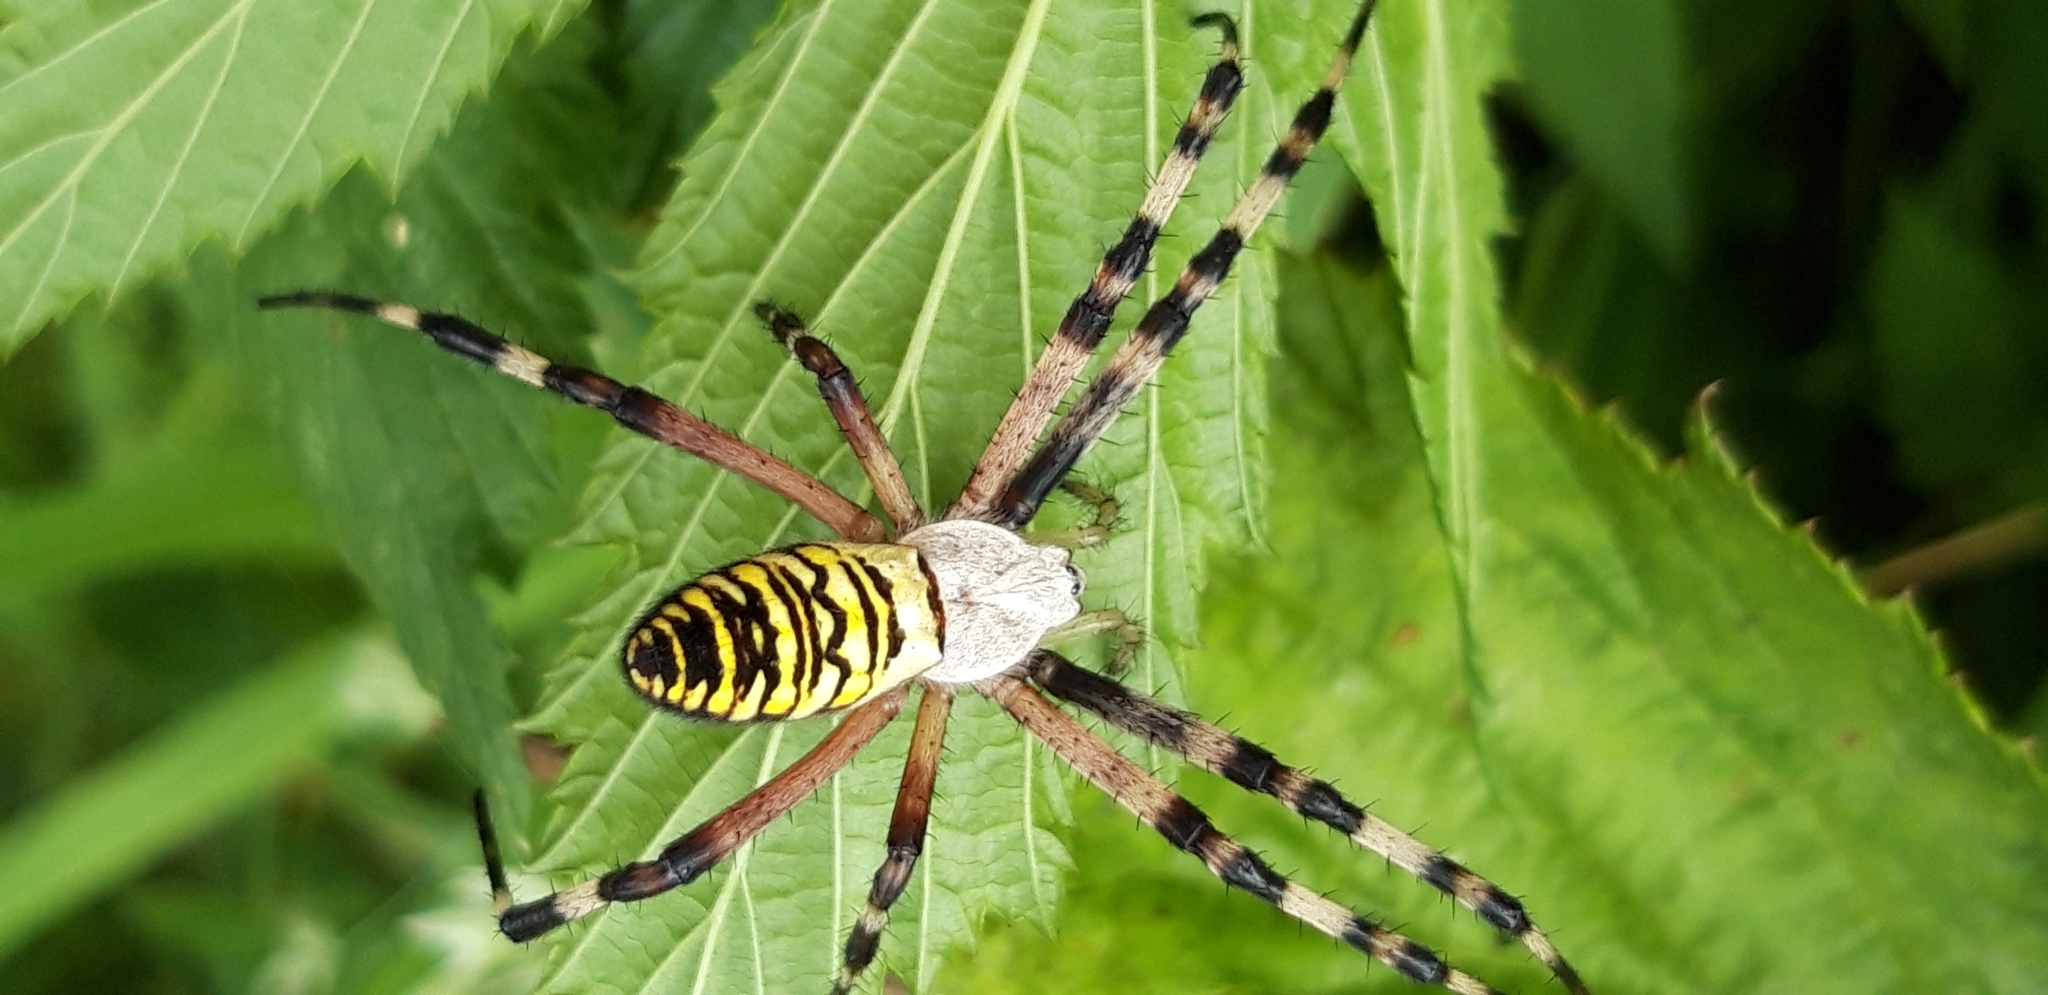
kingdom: Animalia
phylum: Arthropoda
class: Arachnida
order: Araneae
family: Araneidae
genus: Argiope
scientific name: Argiope bruennichi
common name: Wasp spider
